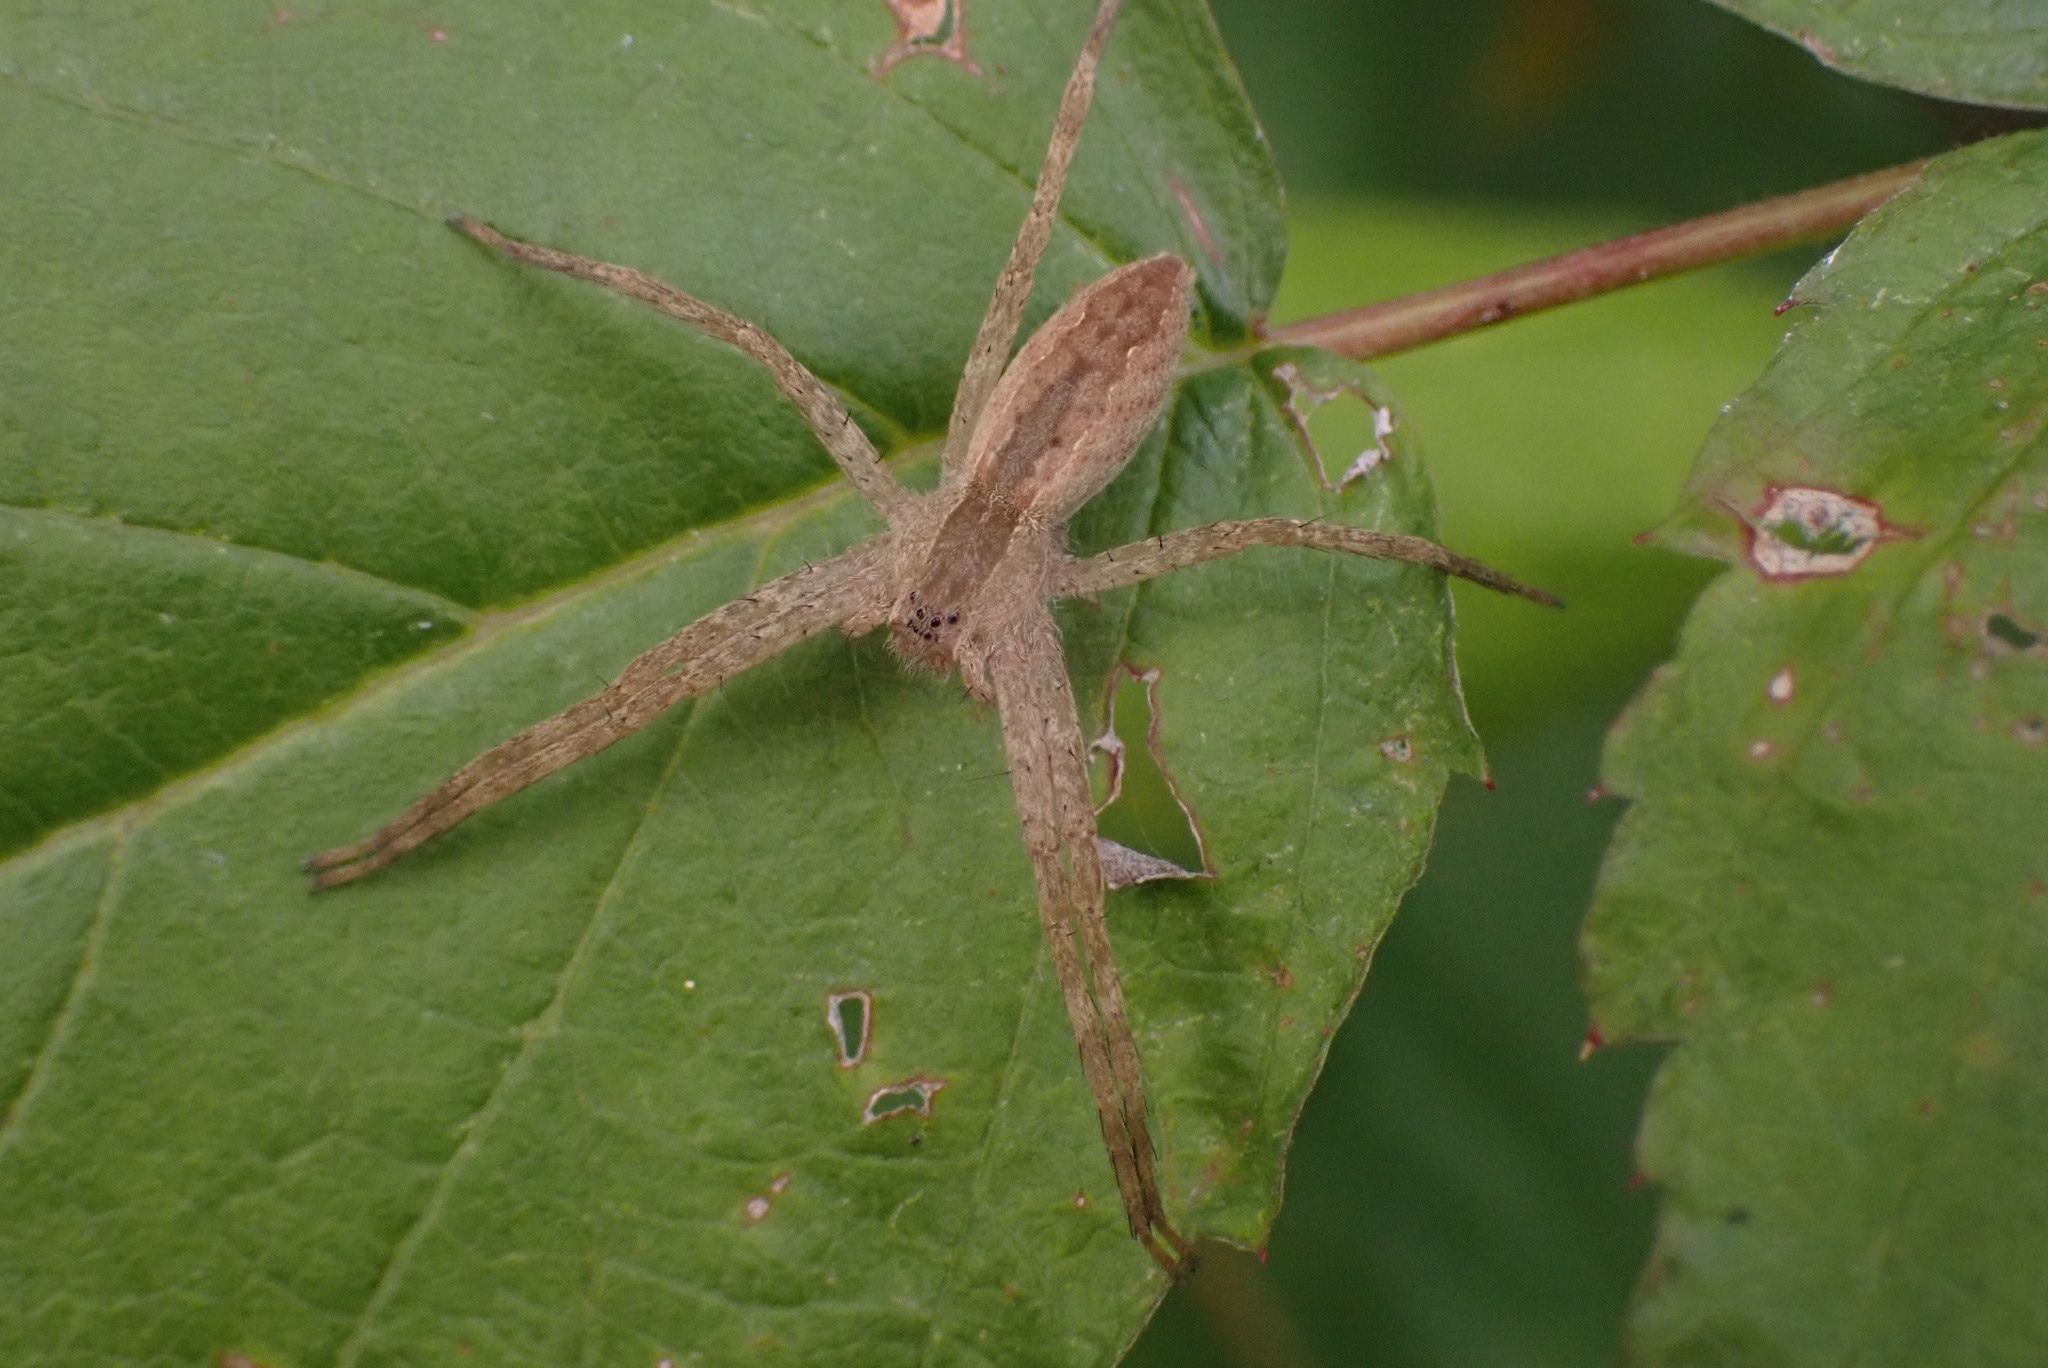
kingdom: Animalia
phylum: Arthropoda
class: Arachnida
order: Araneae
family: Pisauridae
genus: Pisaurina
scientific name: Pisaurina mira
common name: American nursery web spider
